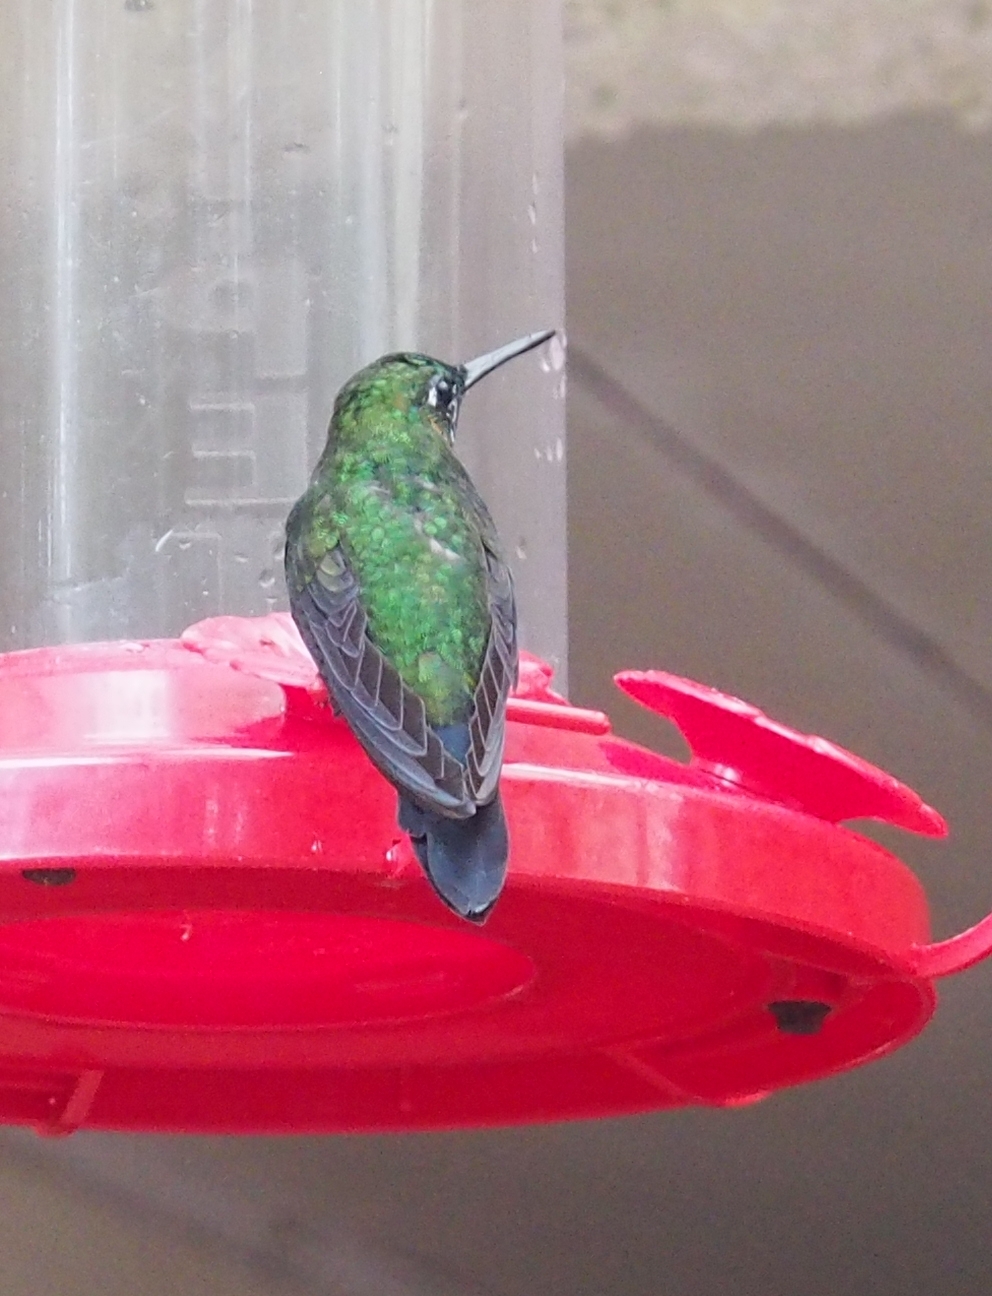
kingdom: Animalia
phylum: Chordata
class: Aves
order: Apodiformes
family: Trochilidae
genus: Heliodoxa
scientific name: Heliodoxa jacula
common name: Green-crowned brilliant
